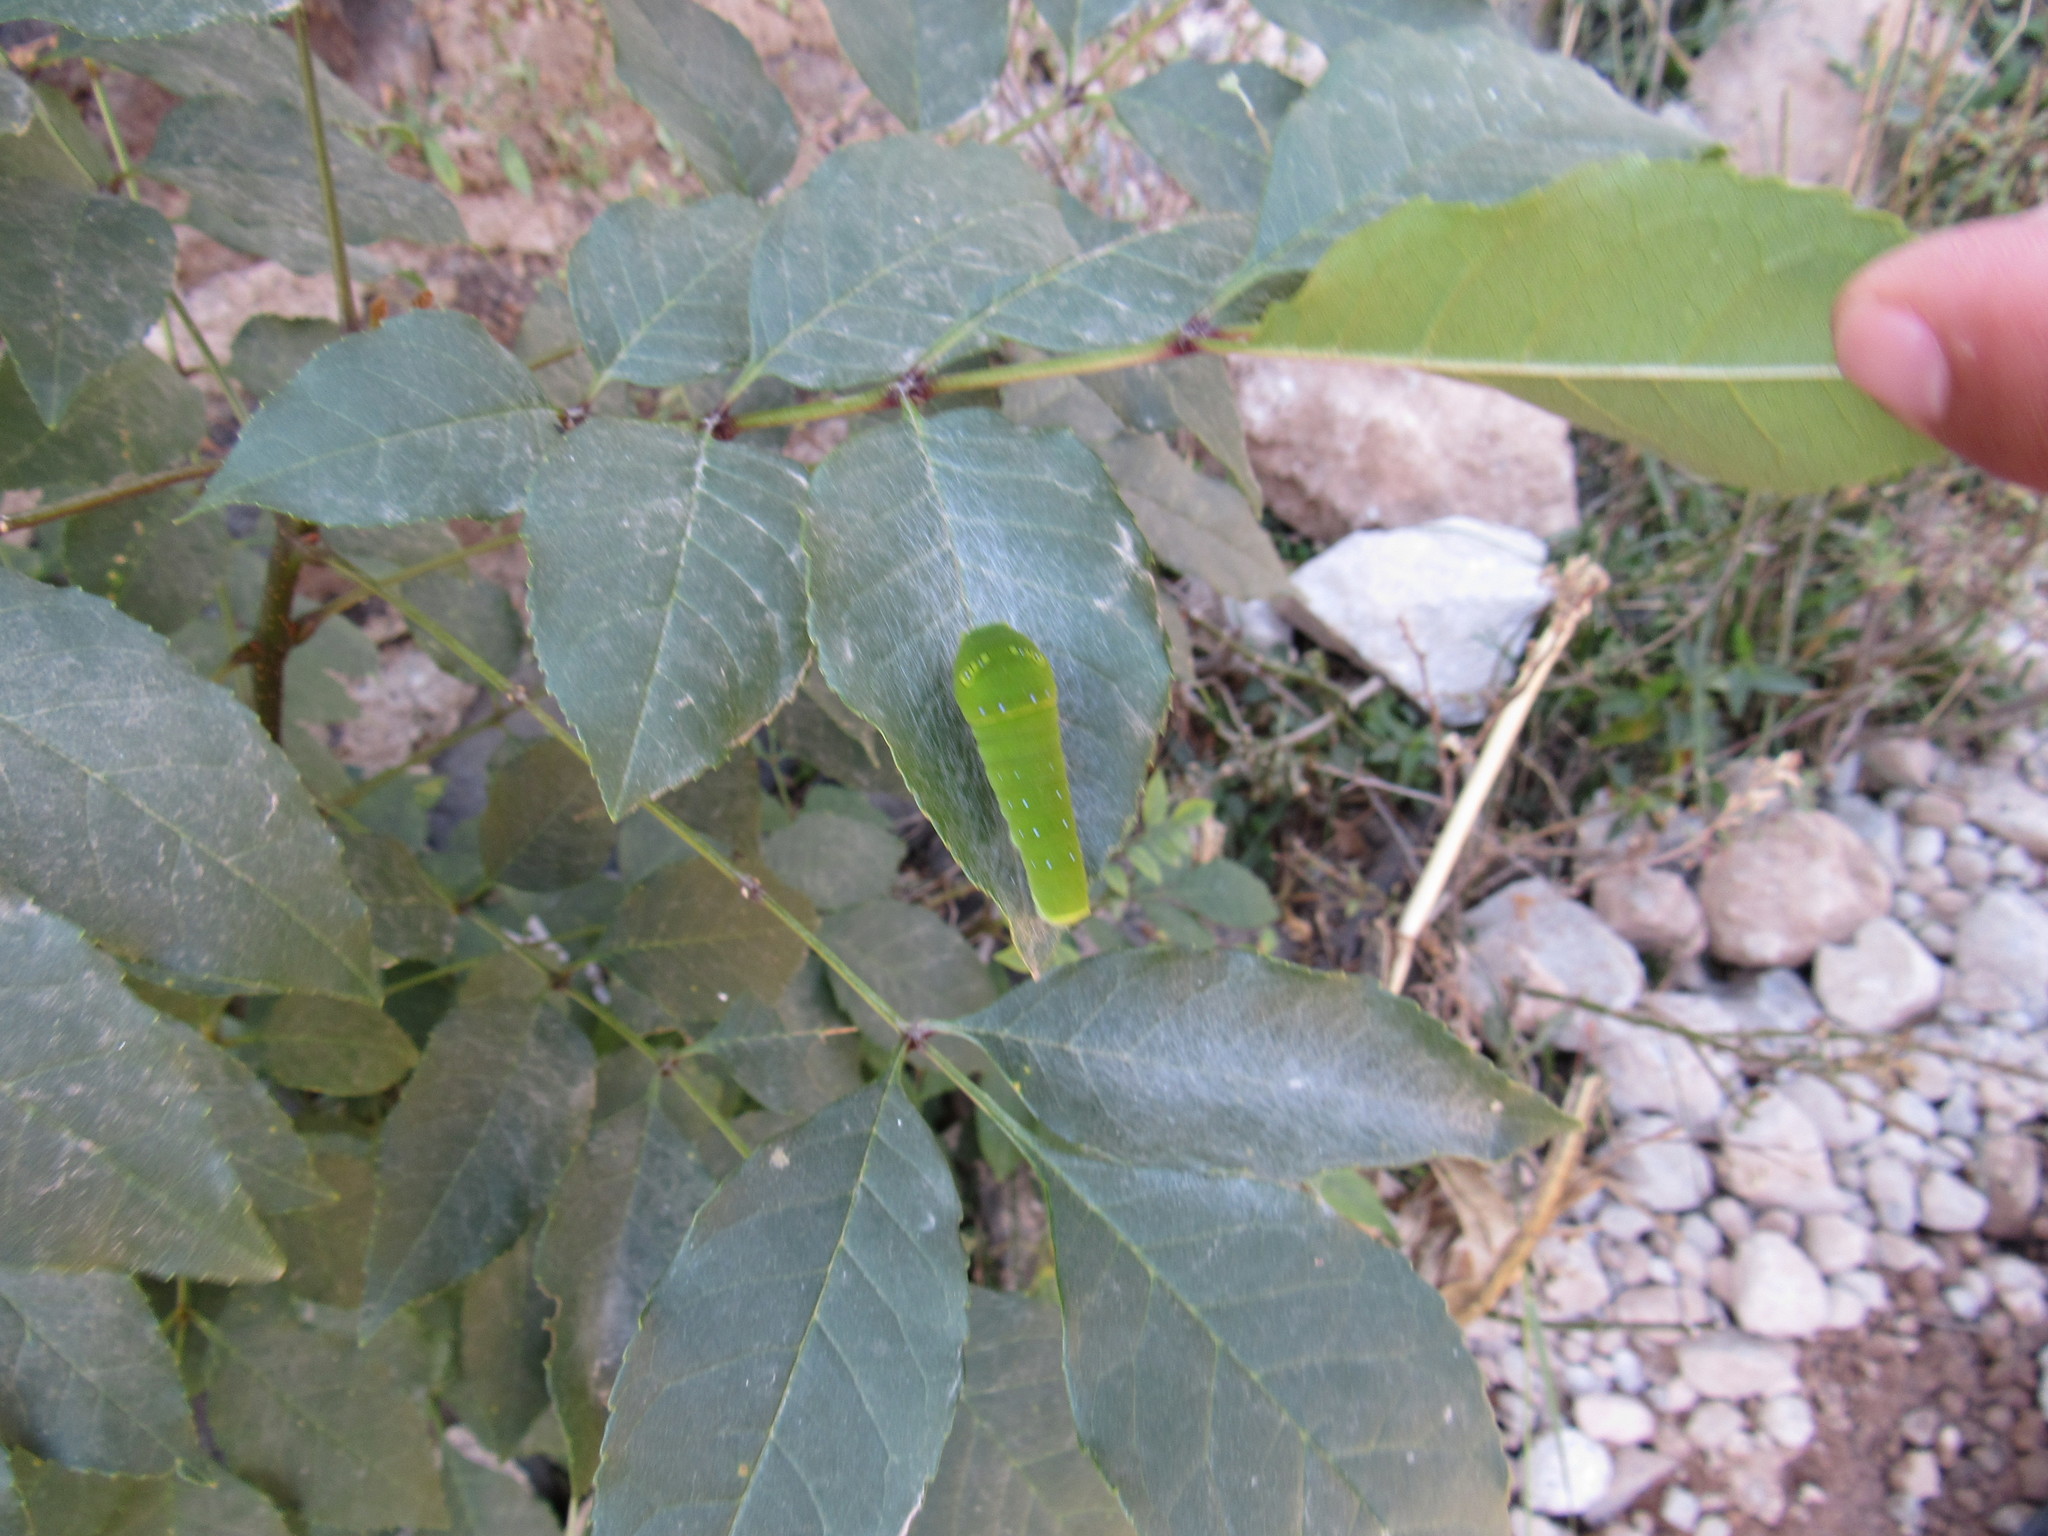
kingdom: Animalia
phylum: Arthropoda
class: Insecta
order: Lepidoptera
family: Papilionidae
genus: Papilio
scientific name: Papilio multicaudata
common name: Two-tailed tiger swallowtail
